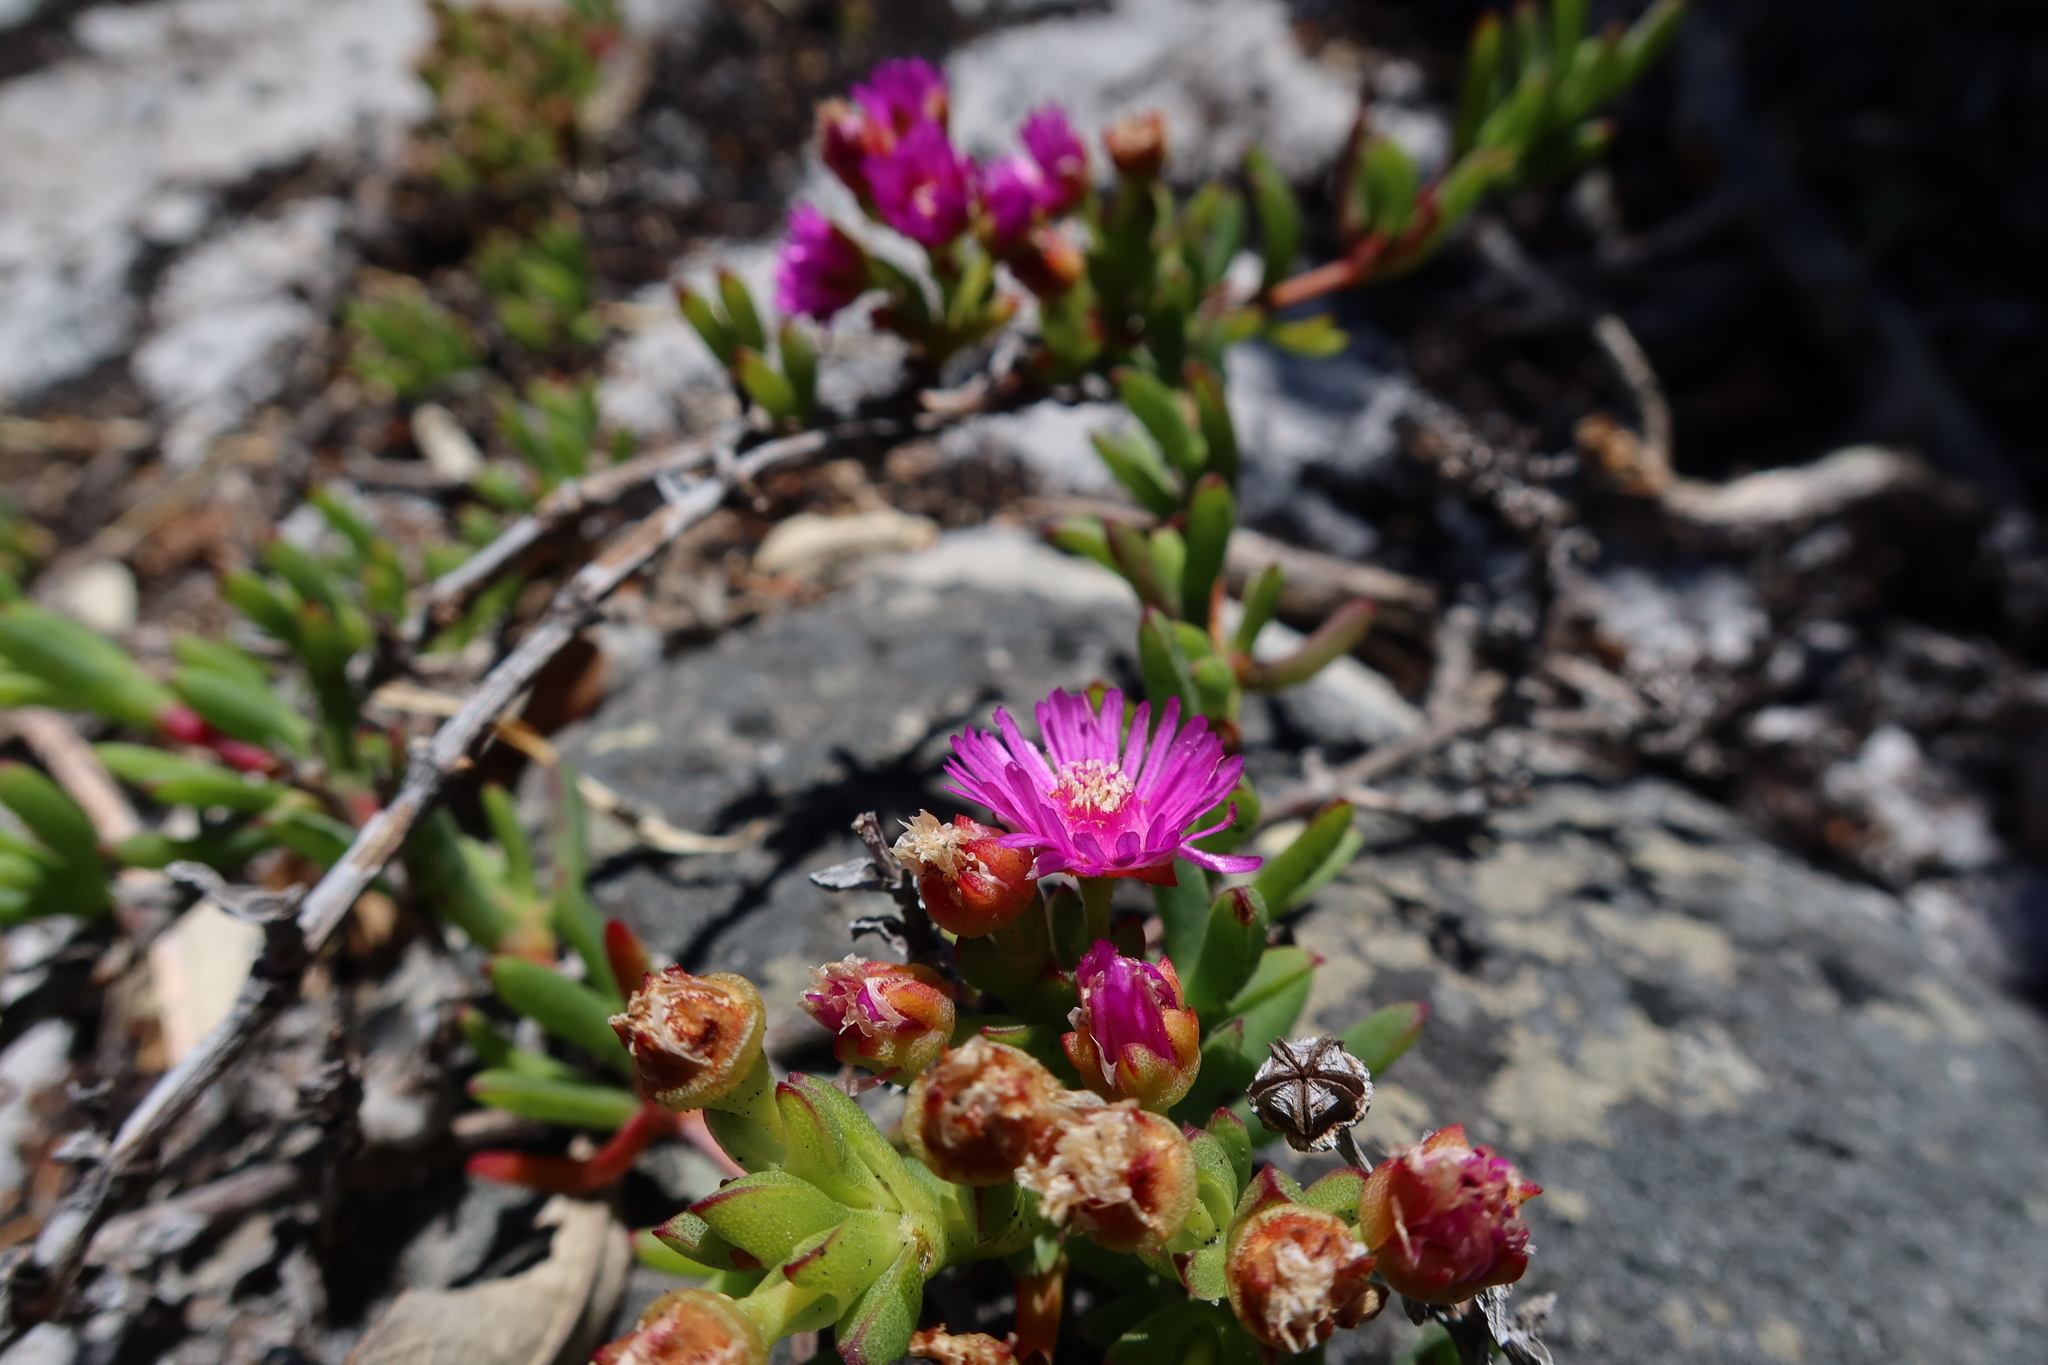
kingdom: Plantae
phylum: Tracheophyta
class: Magnoliopsida
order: Caryophyllales
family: Aizoaceae
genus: Ruschia
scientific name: Ruschia macowanii
